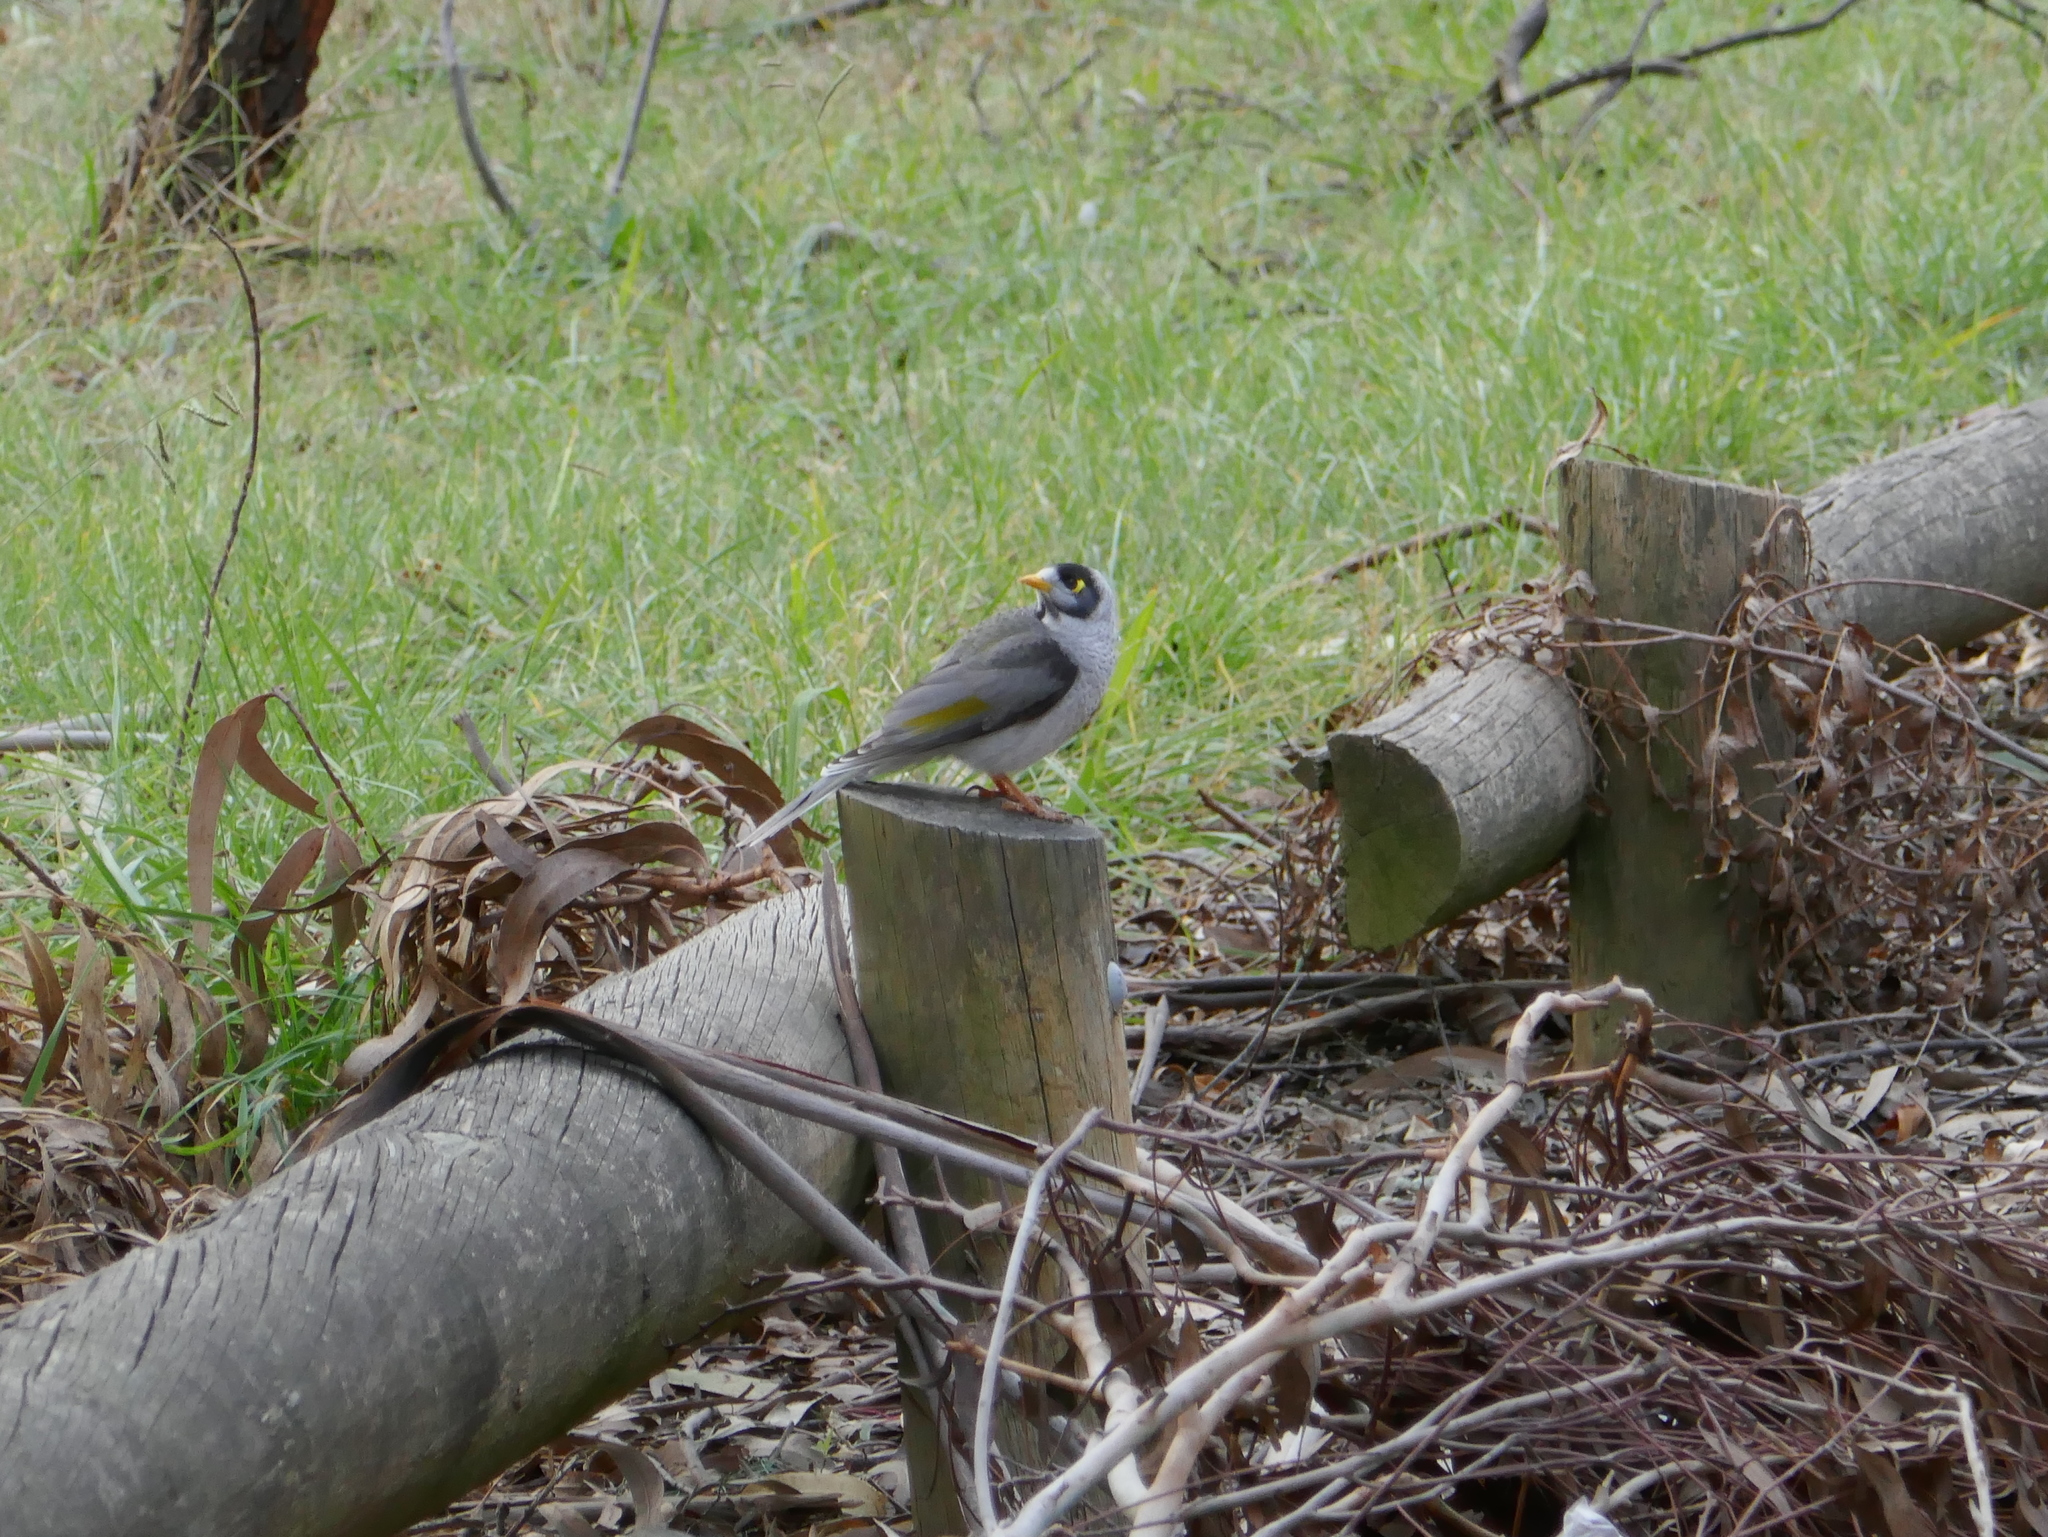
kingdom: Animalia
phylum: Chordata
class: Aves
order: Passeriformes
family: Meliphagidae
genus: Manorina
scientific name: Manorina melanocephala
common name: Noisy miner
